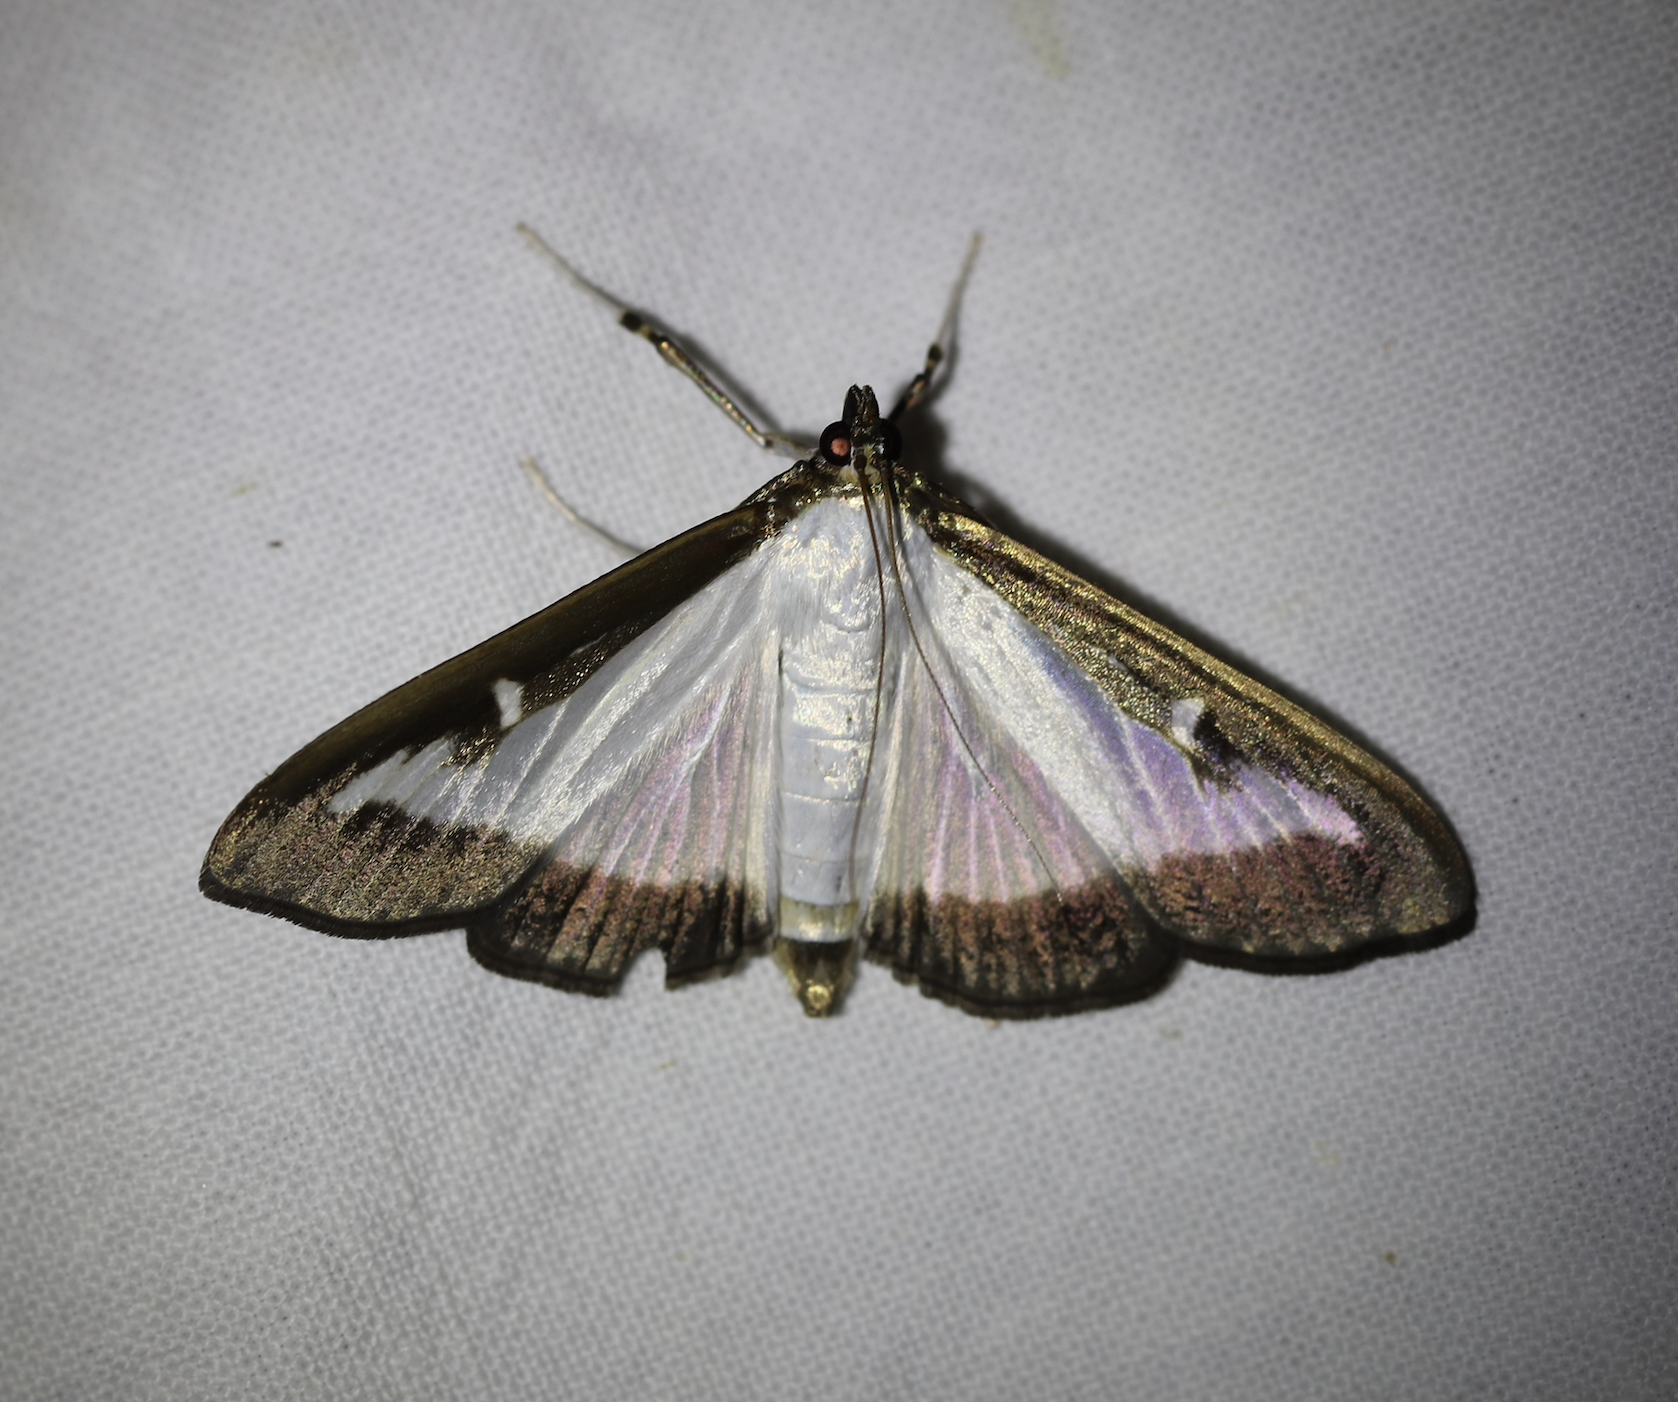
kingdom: Animalia
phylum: Arthropoda
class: Insecta
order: Lepidoptera
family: Crambidae
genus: Cydalima
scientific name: Cydalima perspectalis
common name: Box tree moth
